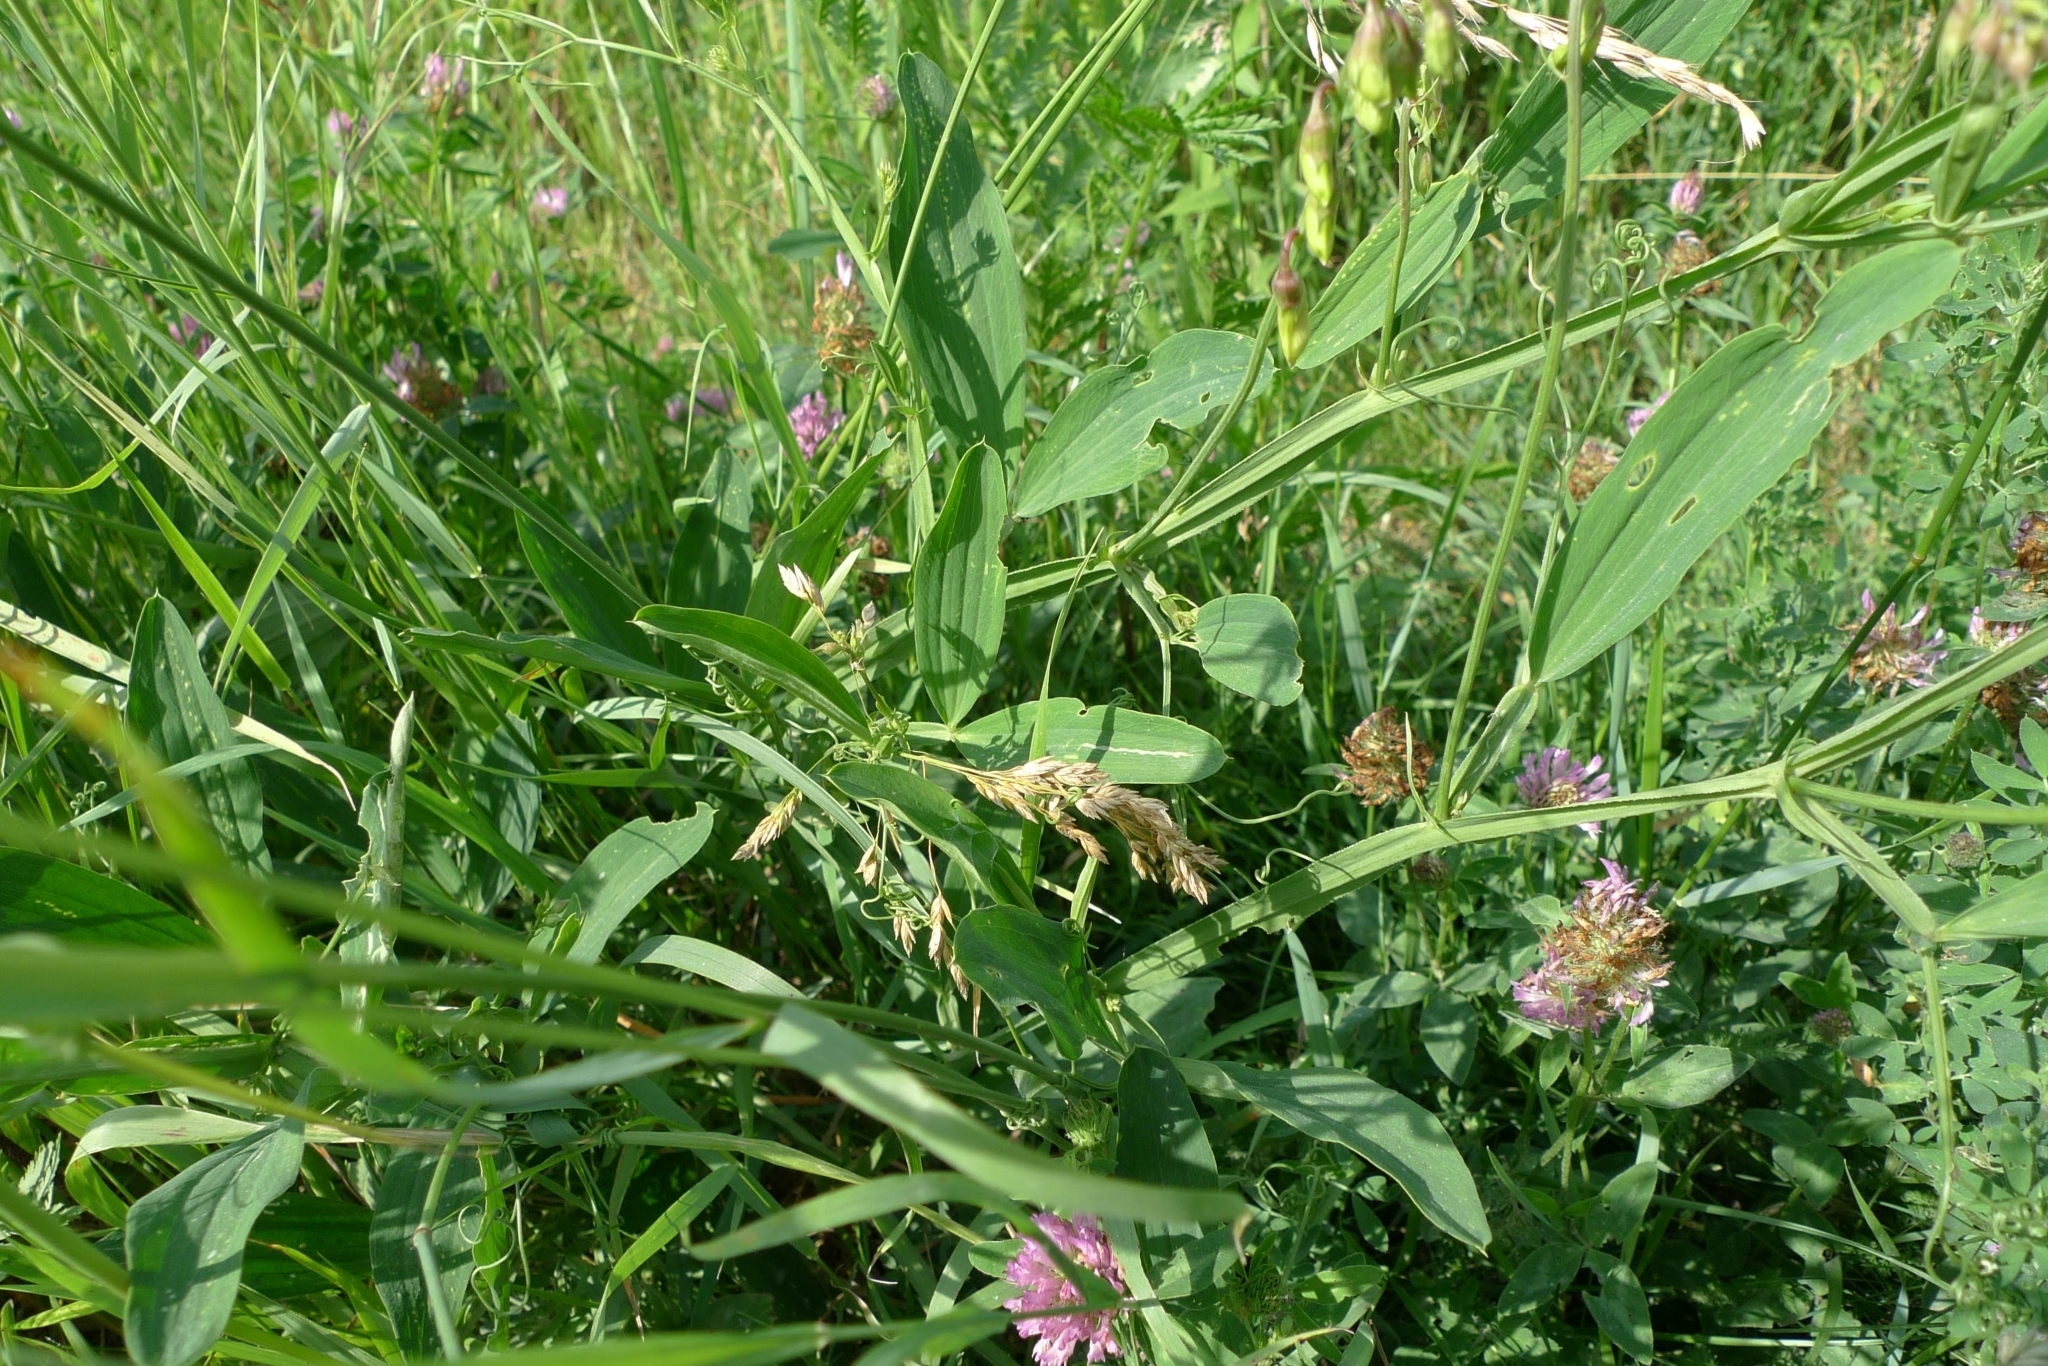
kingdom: Plantae
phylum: Tracheophyta
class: Magnoliopsida
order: Fabales
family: Fabaceae
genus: Lathyrus
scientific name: Lathyrus sylvestris
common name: Flat pea
